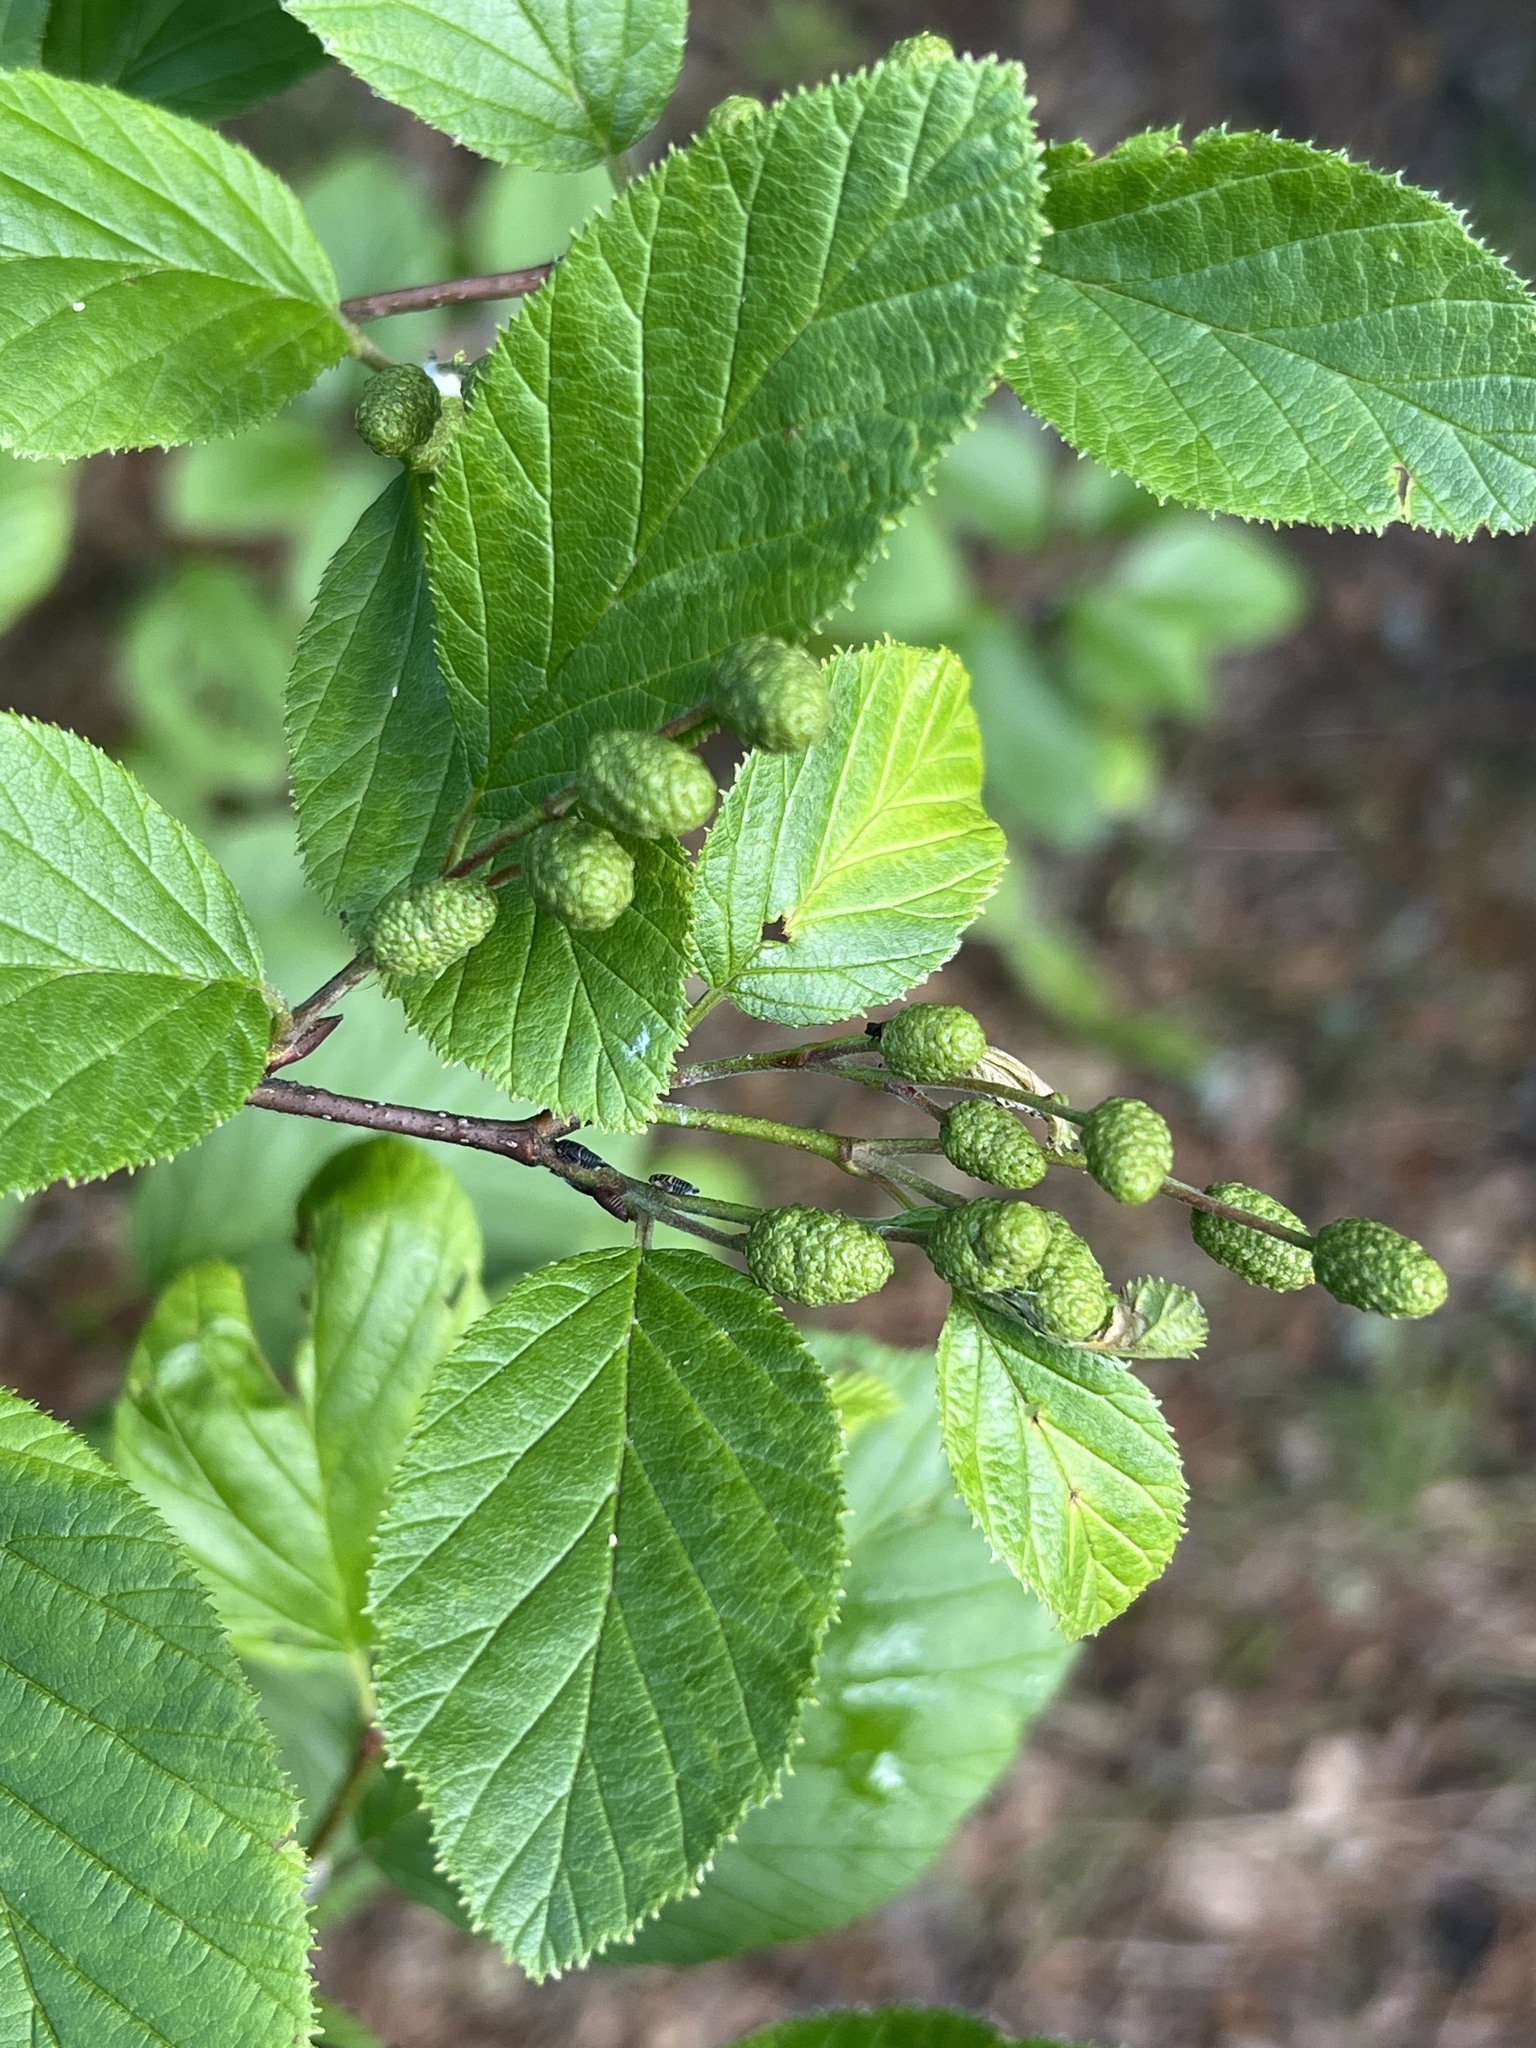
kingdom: Plantae
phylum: Tracheophyta
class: Magnoliopsida
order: Fagales
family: Betulaceae
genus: Alnus
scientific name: Alnus alnobetula
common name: Green alder
